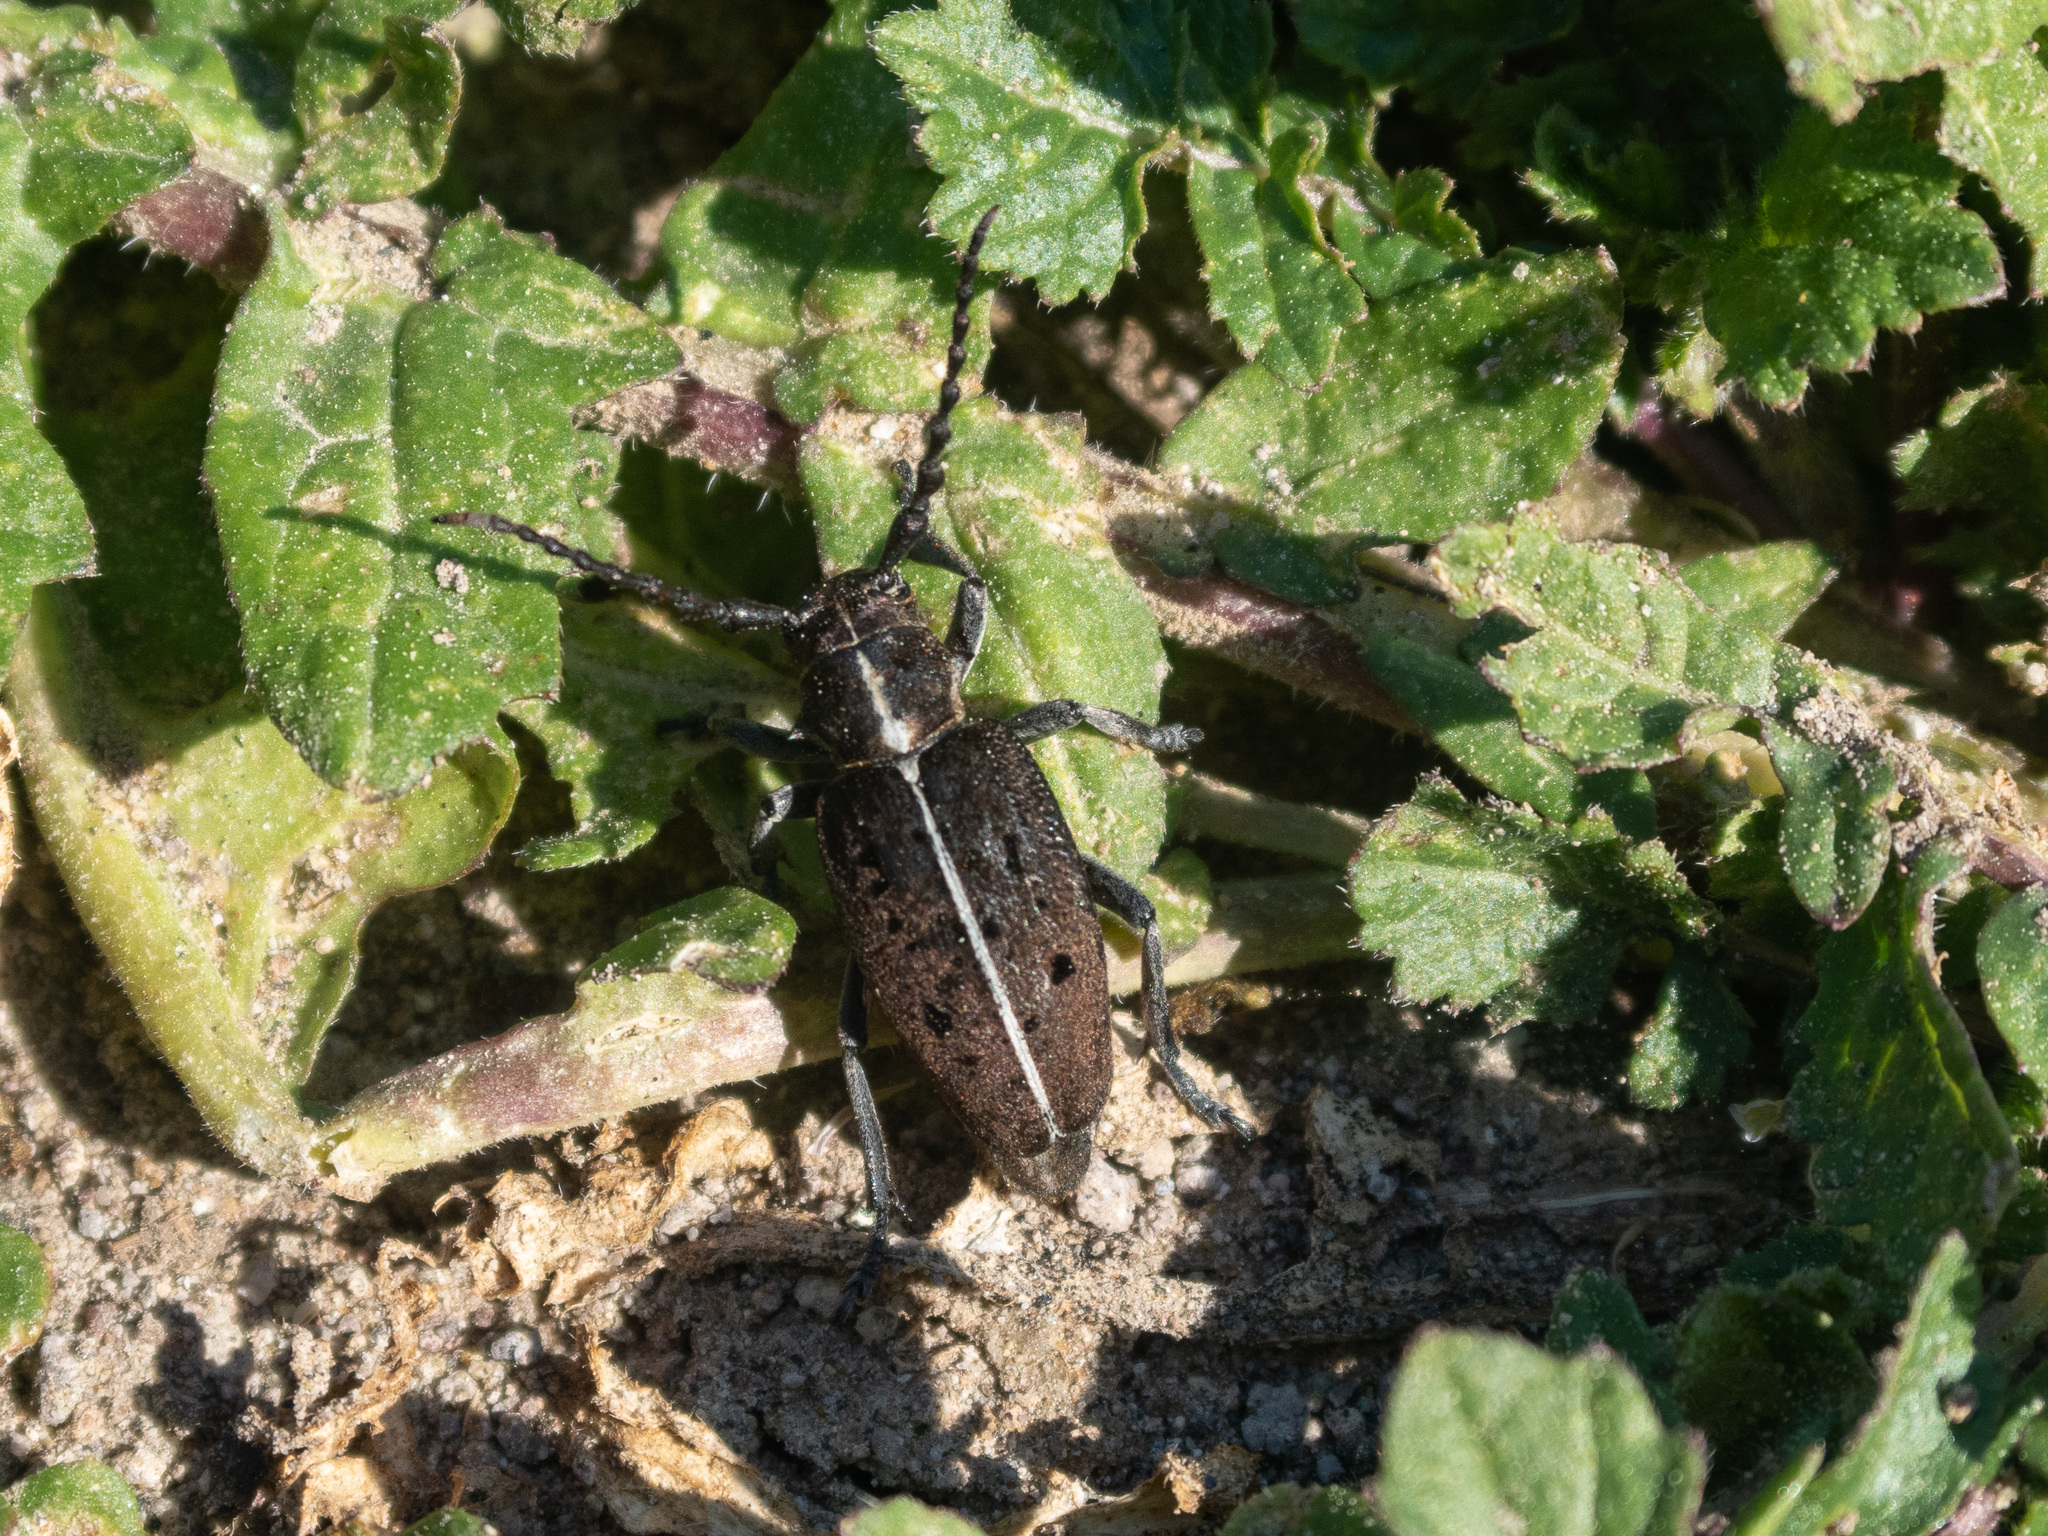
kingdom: Animalia
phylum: Arthropoda
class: Insecta
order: Coleoptera
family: Cerambycidae
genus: Dorcadion
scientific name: Dorcadion nodicorne
